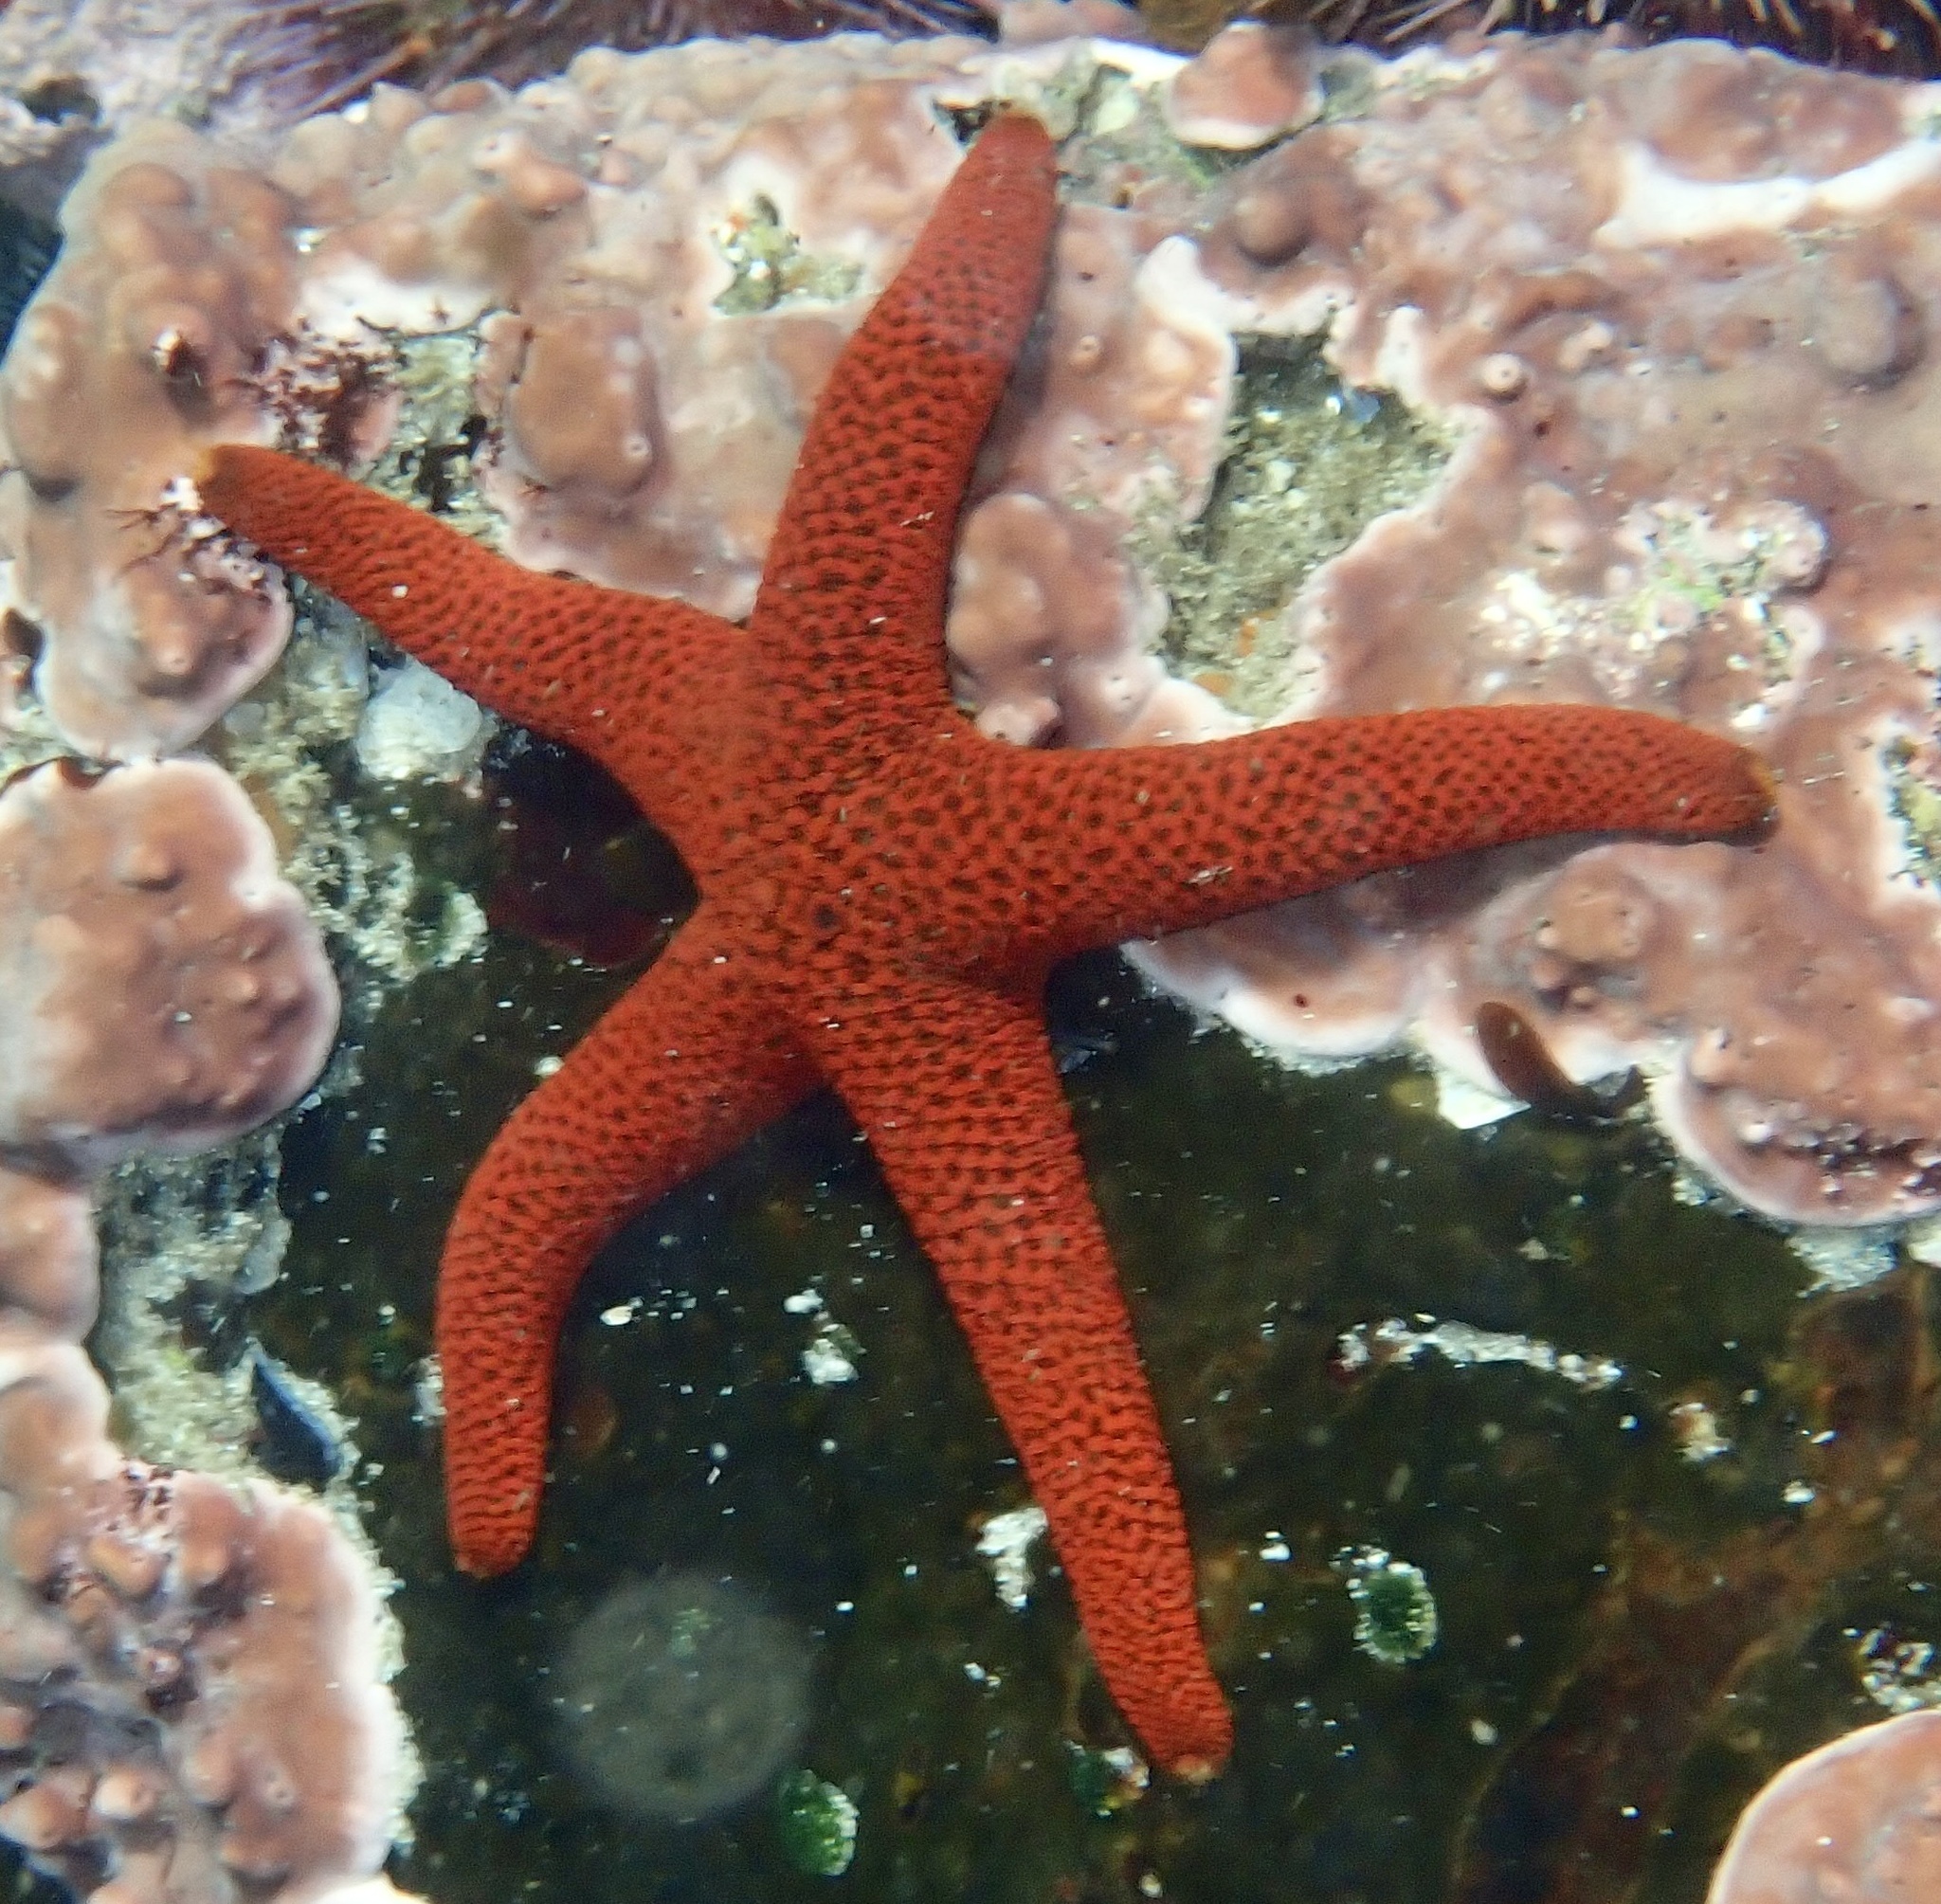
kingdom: Animalia
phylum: Echinodermata
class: Asteroidea
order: Spinulosida
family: Echinasteridae
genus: Henricia
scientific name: Henricia ornata
